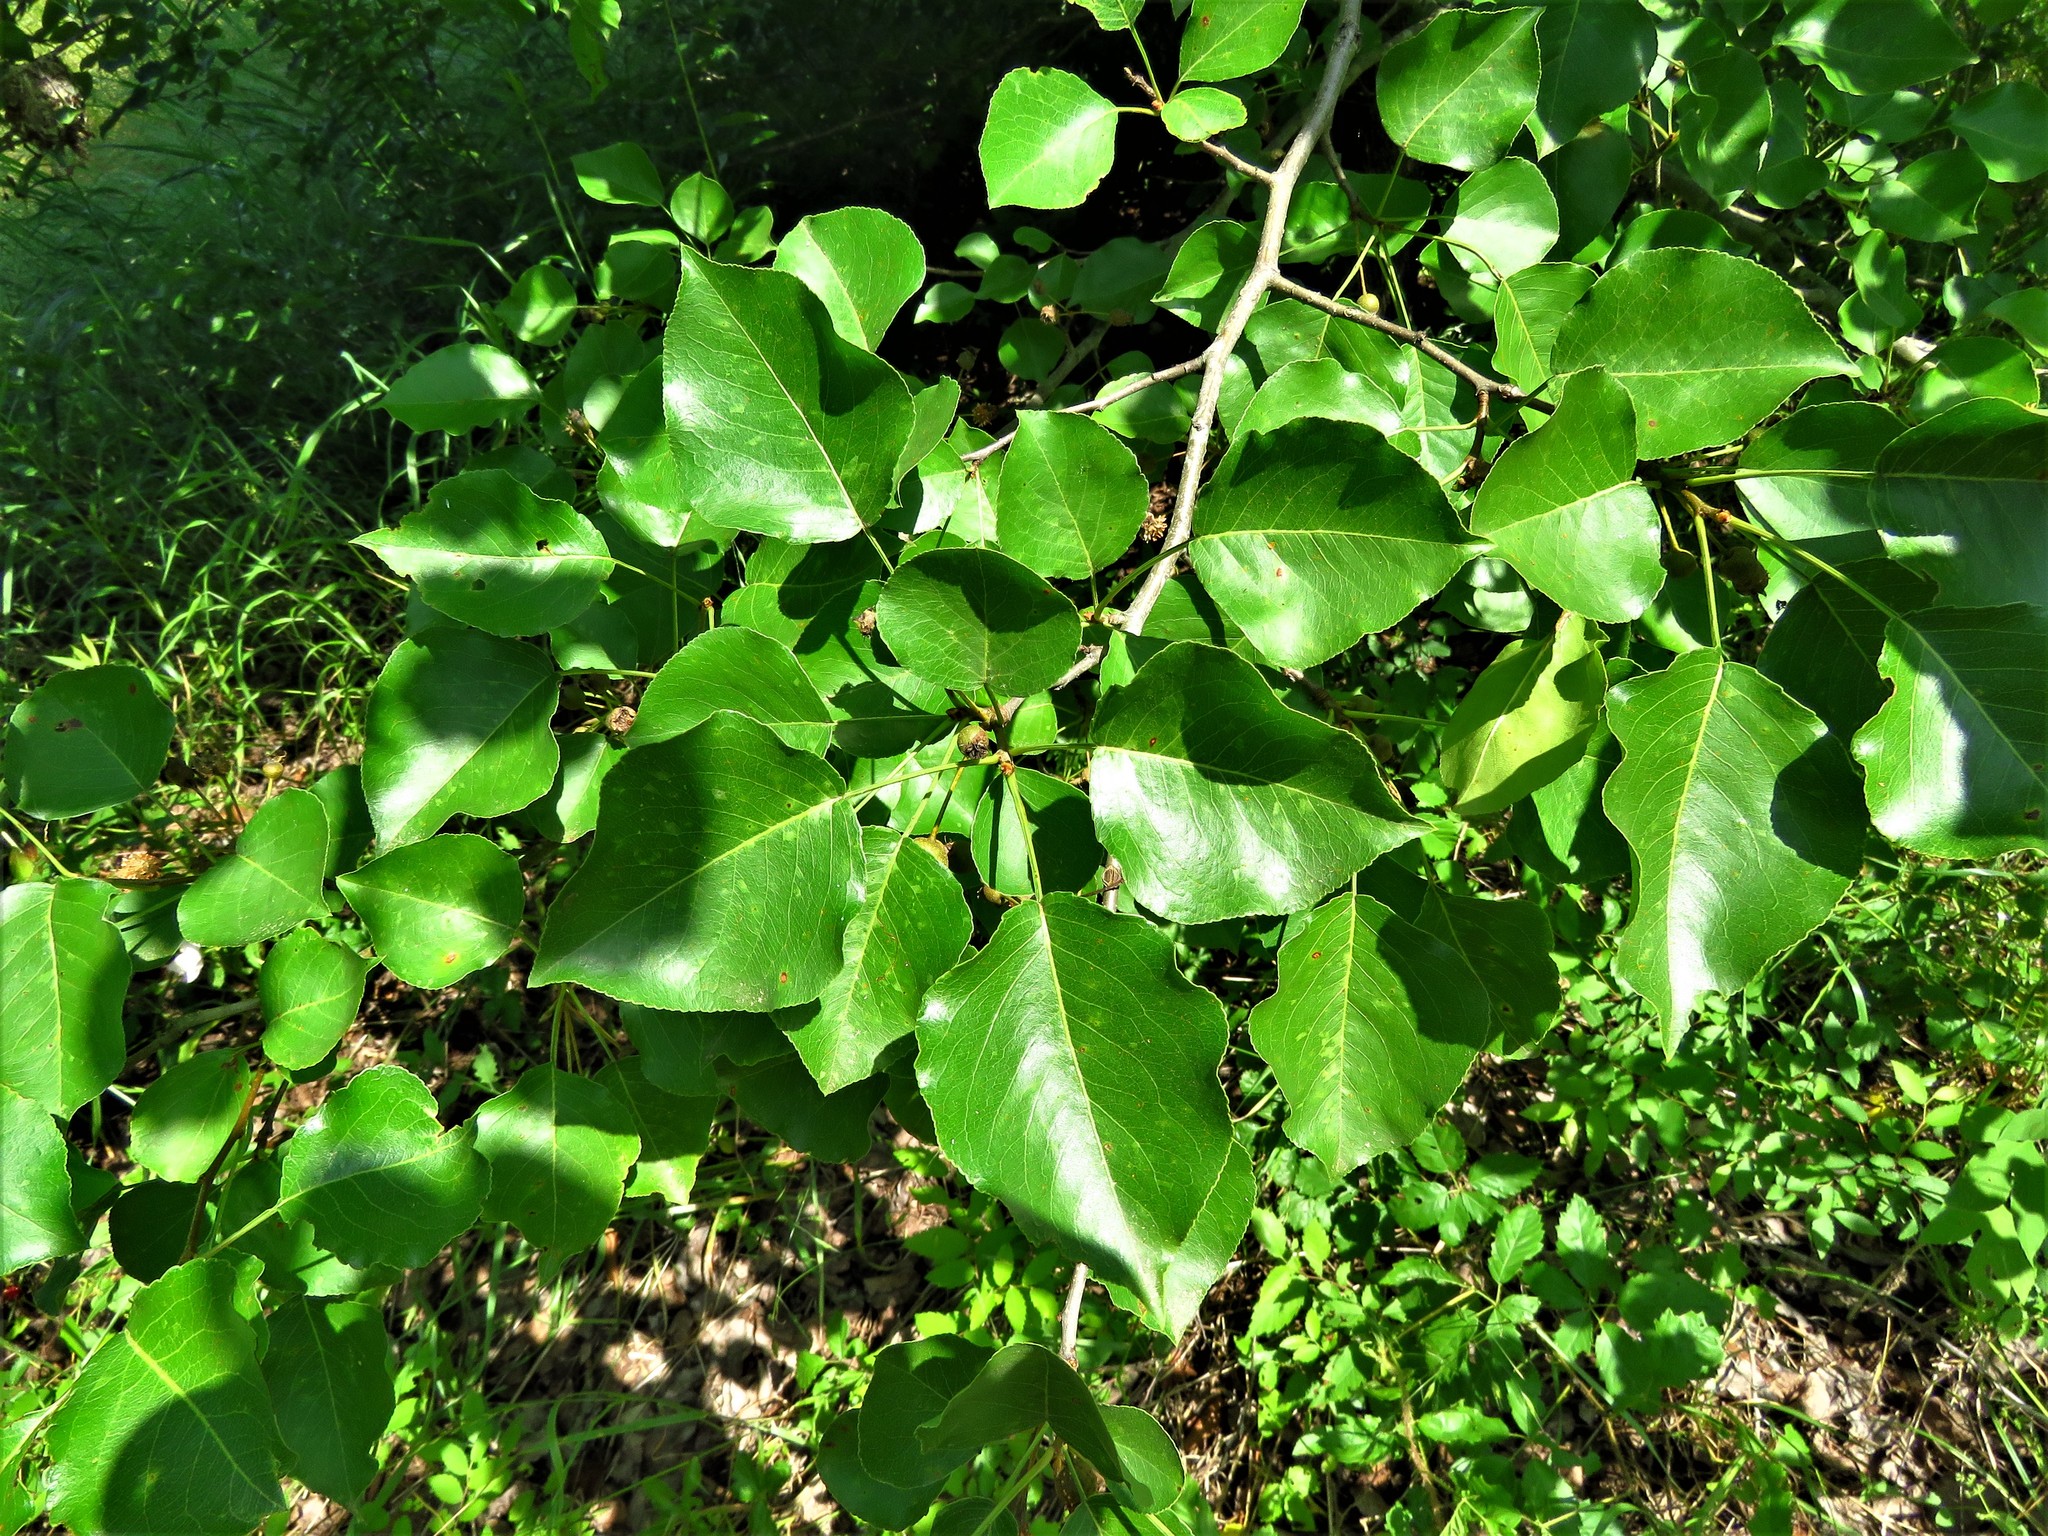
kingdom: Plantae
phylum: Tracheophyta
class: Magnoliopsida
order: Rosales
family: Rosaceae
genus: Pyrus
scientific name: Pyrus calleryana
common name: Callery pear
